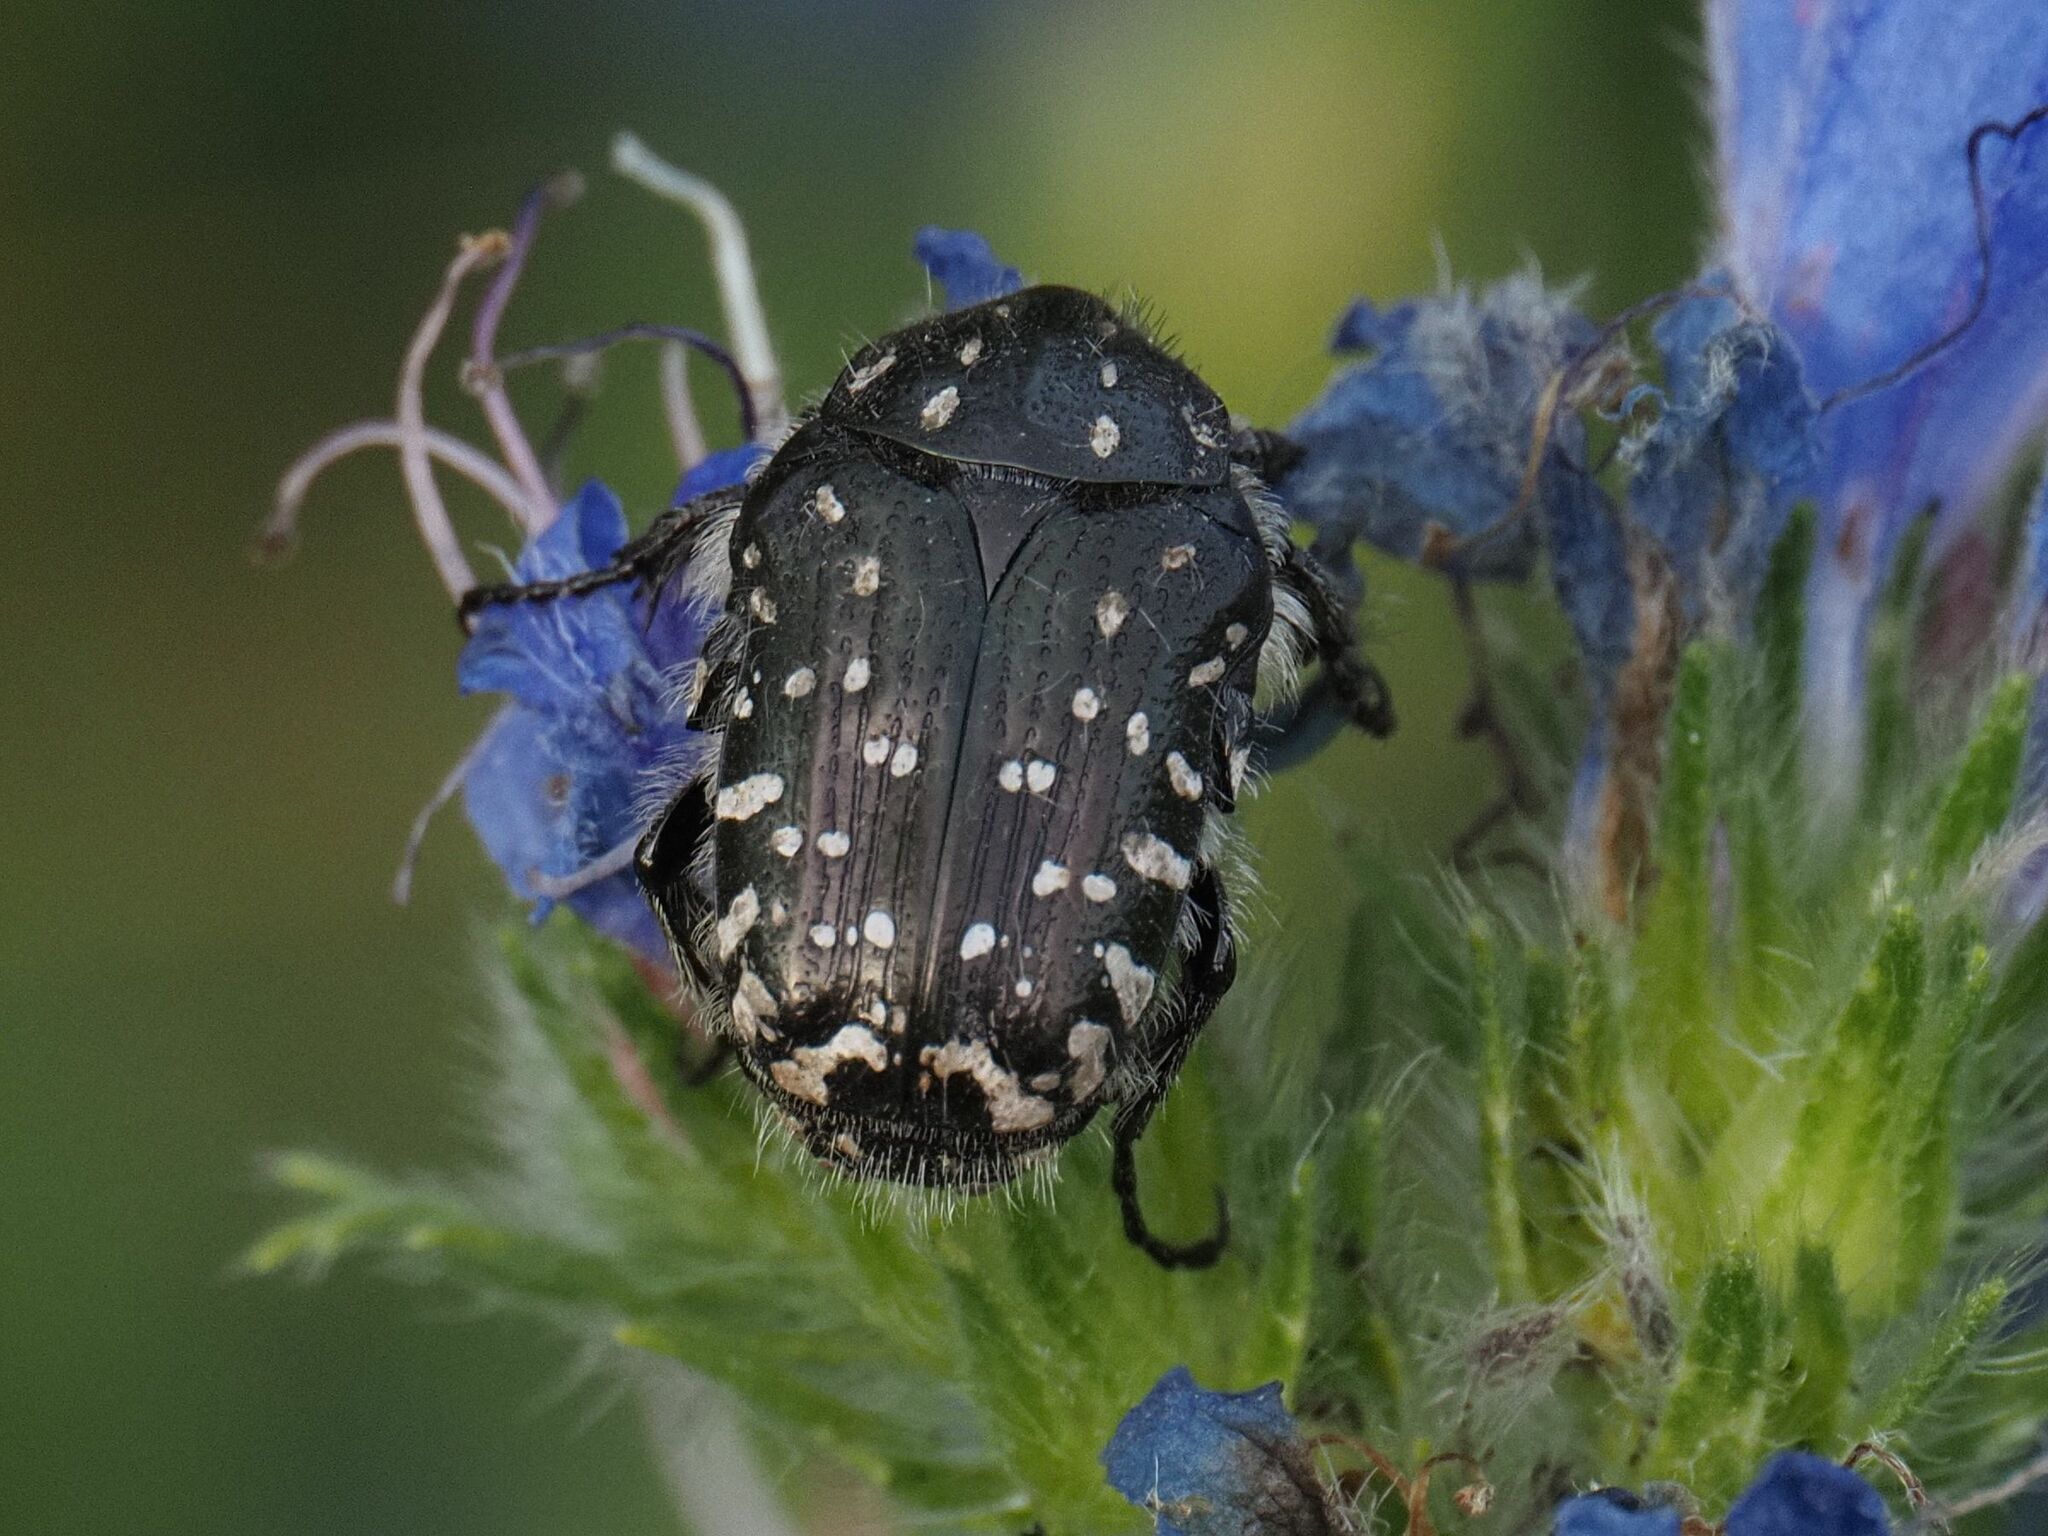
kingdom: Animalia
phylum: Arthropoda
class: Insecta
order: Coleoptera
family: Scarabaeidae
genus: Oxythyrea
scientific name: Oxythyrea funesta
